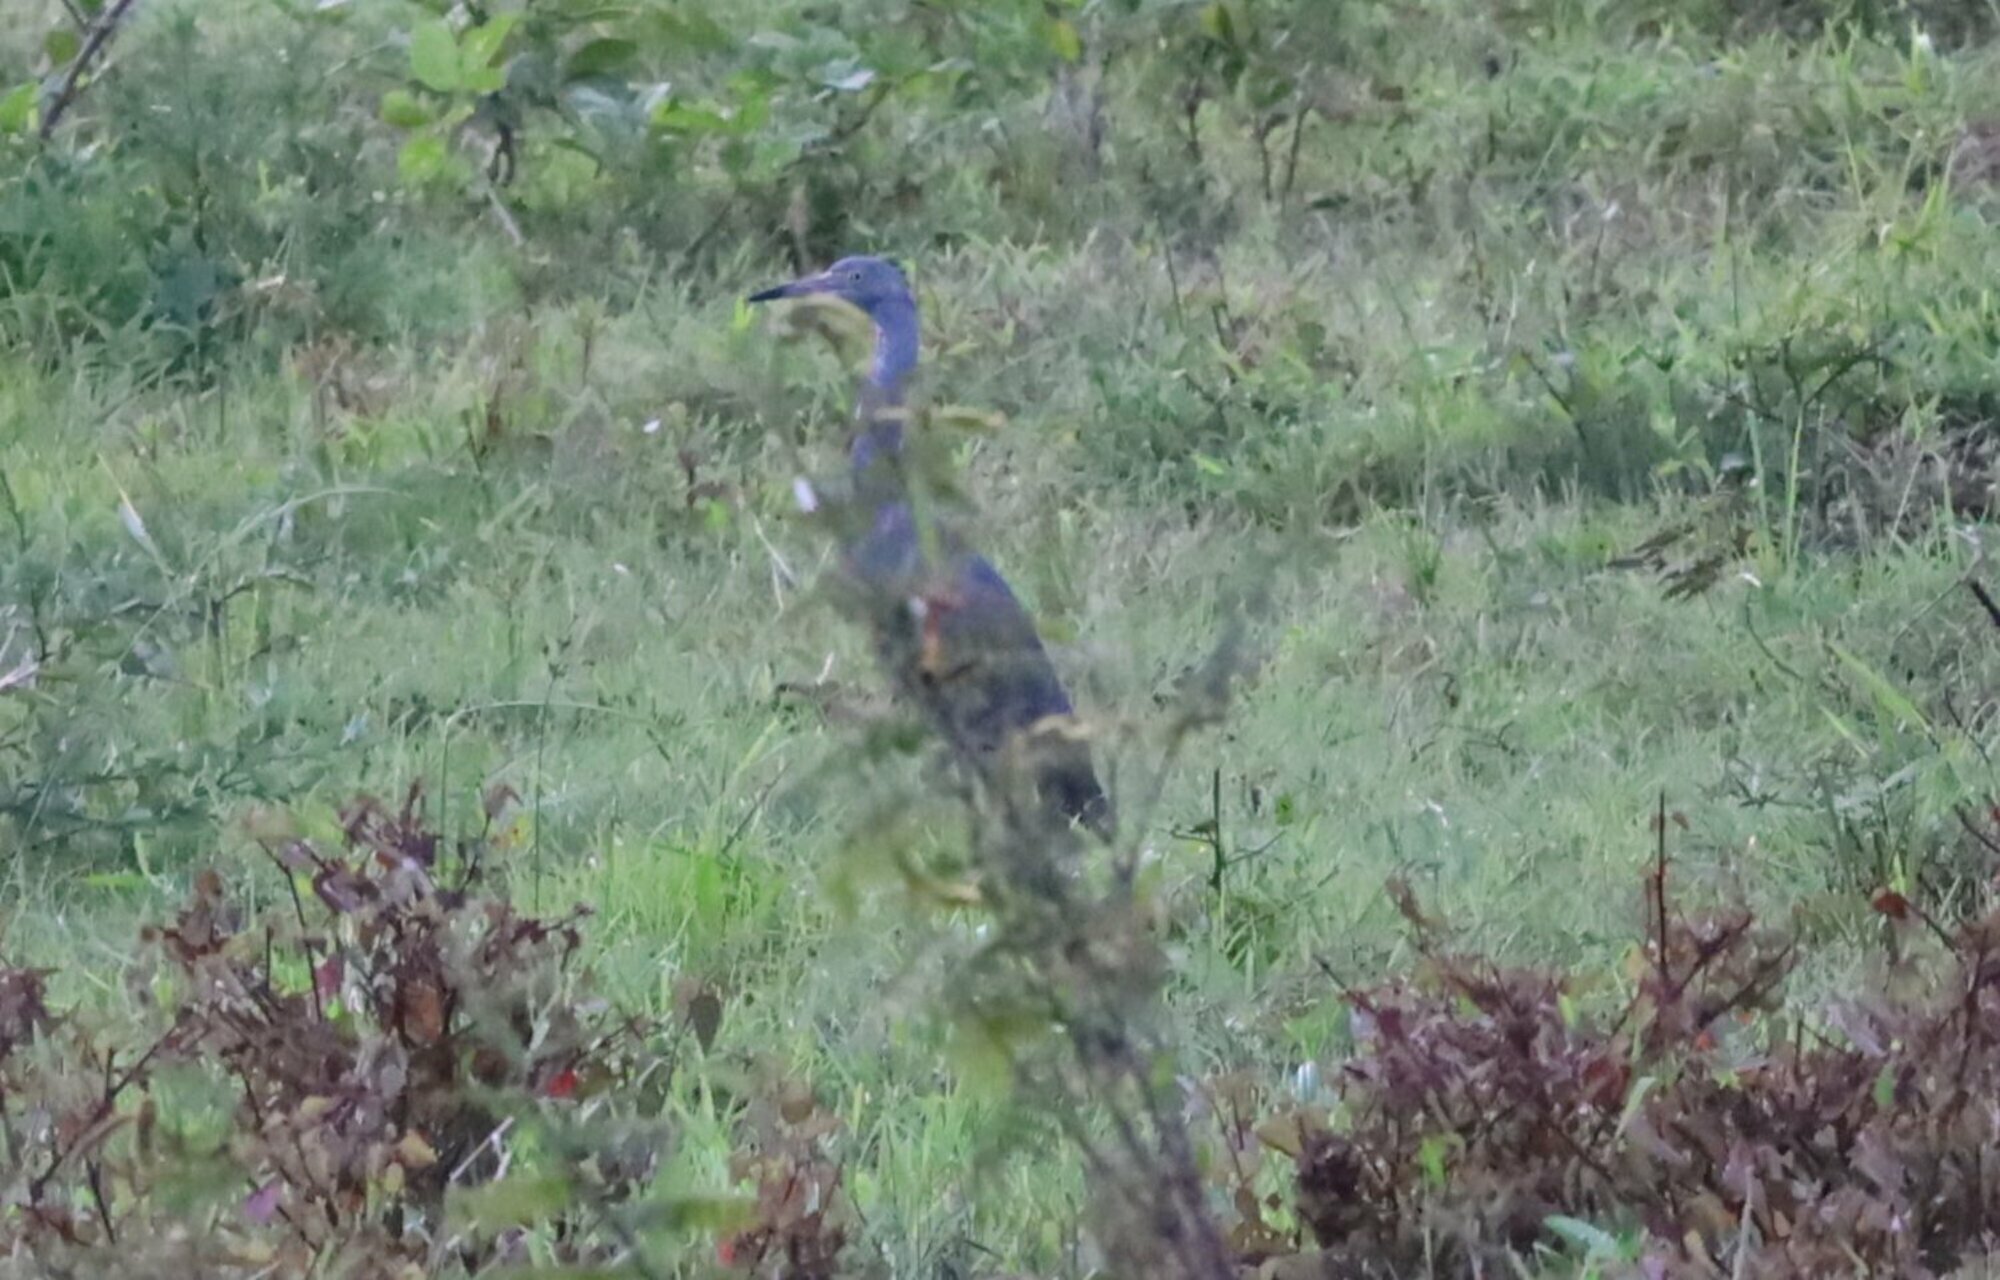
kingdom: Animalia
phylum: Chordata
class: Aves
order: Pelecaniformes
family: Ardeidae
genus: Egretta
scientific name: Egretta caerulea
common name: Little blue heron
